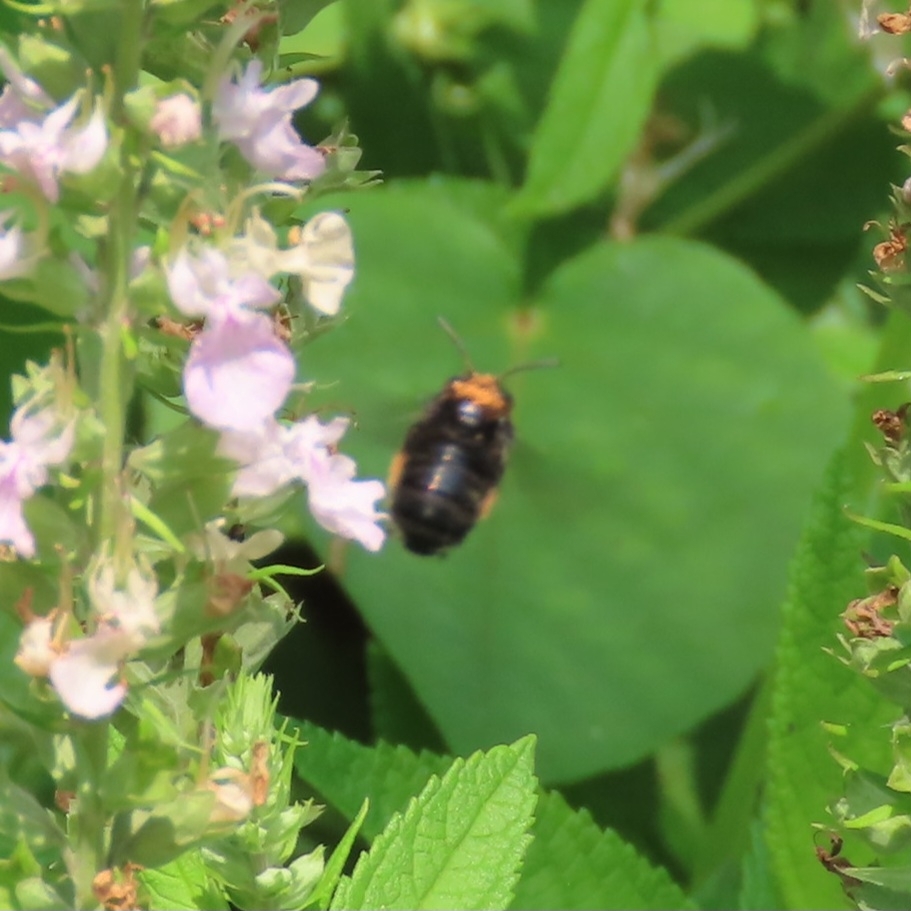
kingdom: Animalia
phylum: Arthropoda
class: Insecta
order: Hymenoptera
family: Apidae
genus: Melissodes
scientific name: Melissodes bimaculatus
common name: Two-spotted long-horned bee
